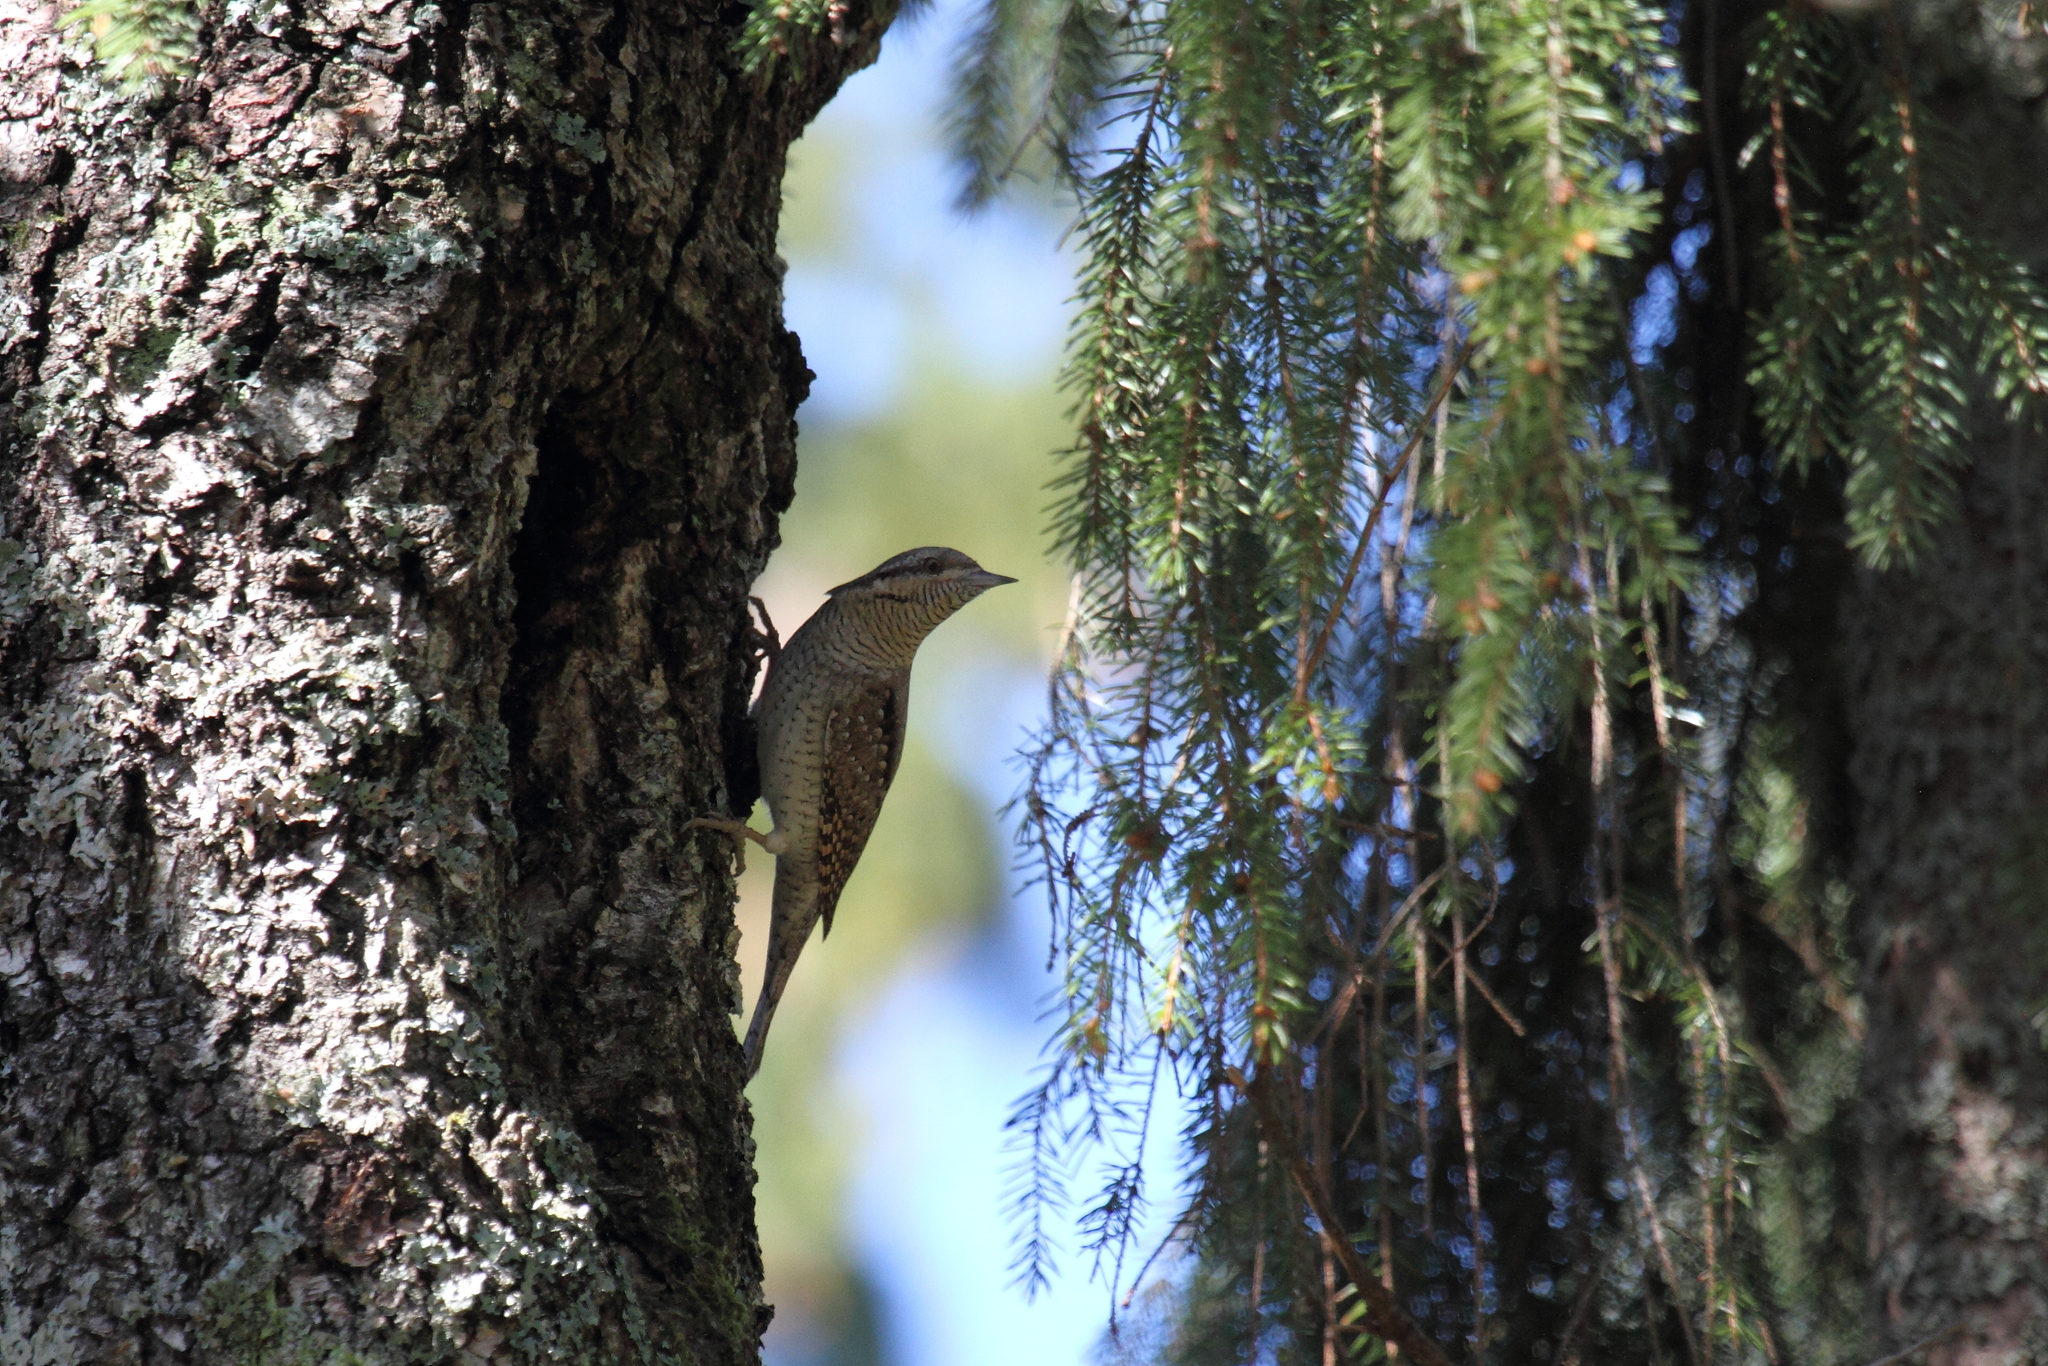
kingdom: Animalia
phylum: Chordata
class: Aves
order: Piciformes
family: Picidae
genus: Jynx
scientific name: Jynx torquilla
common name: Eurasian wryneck
